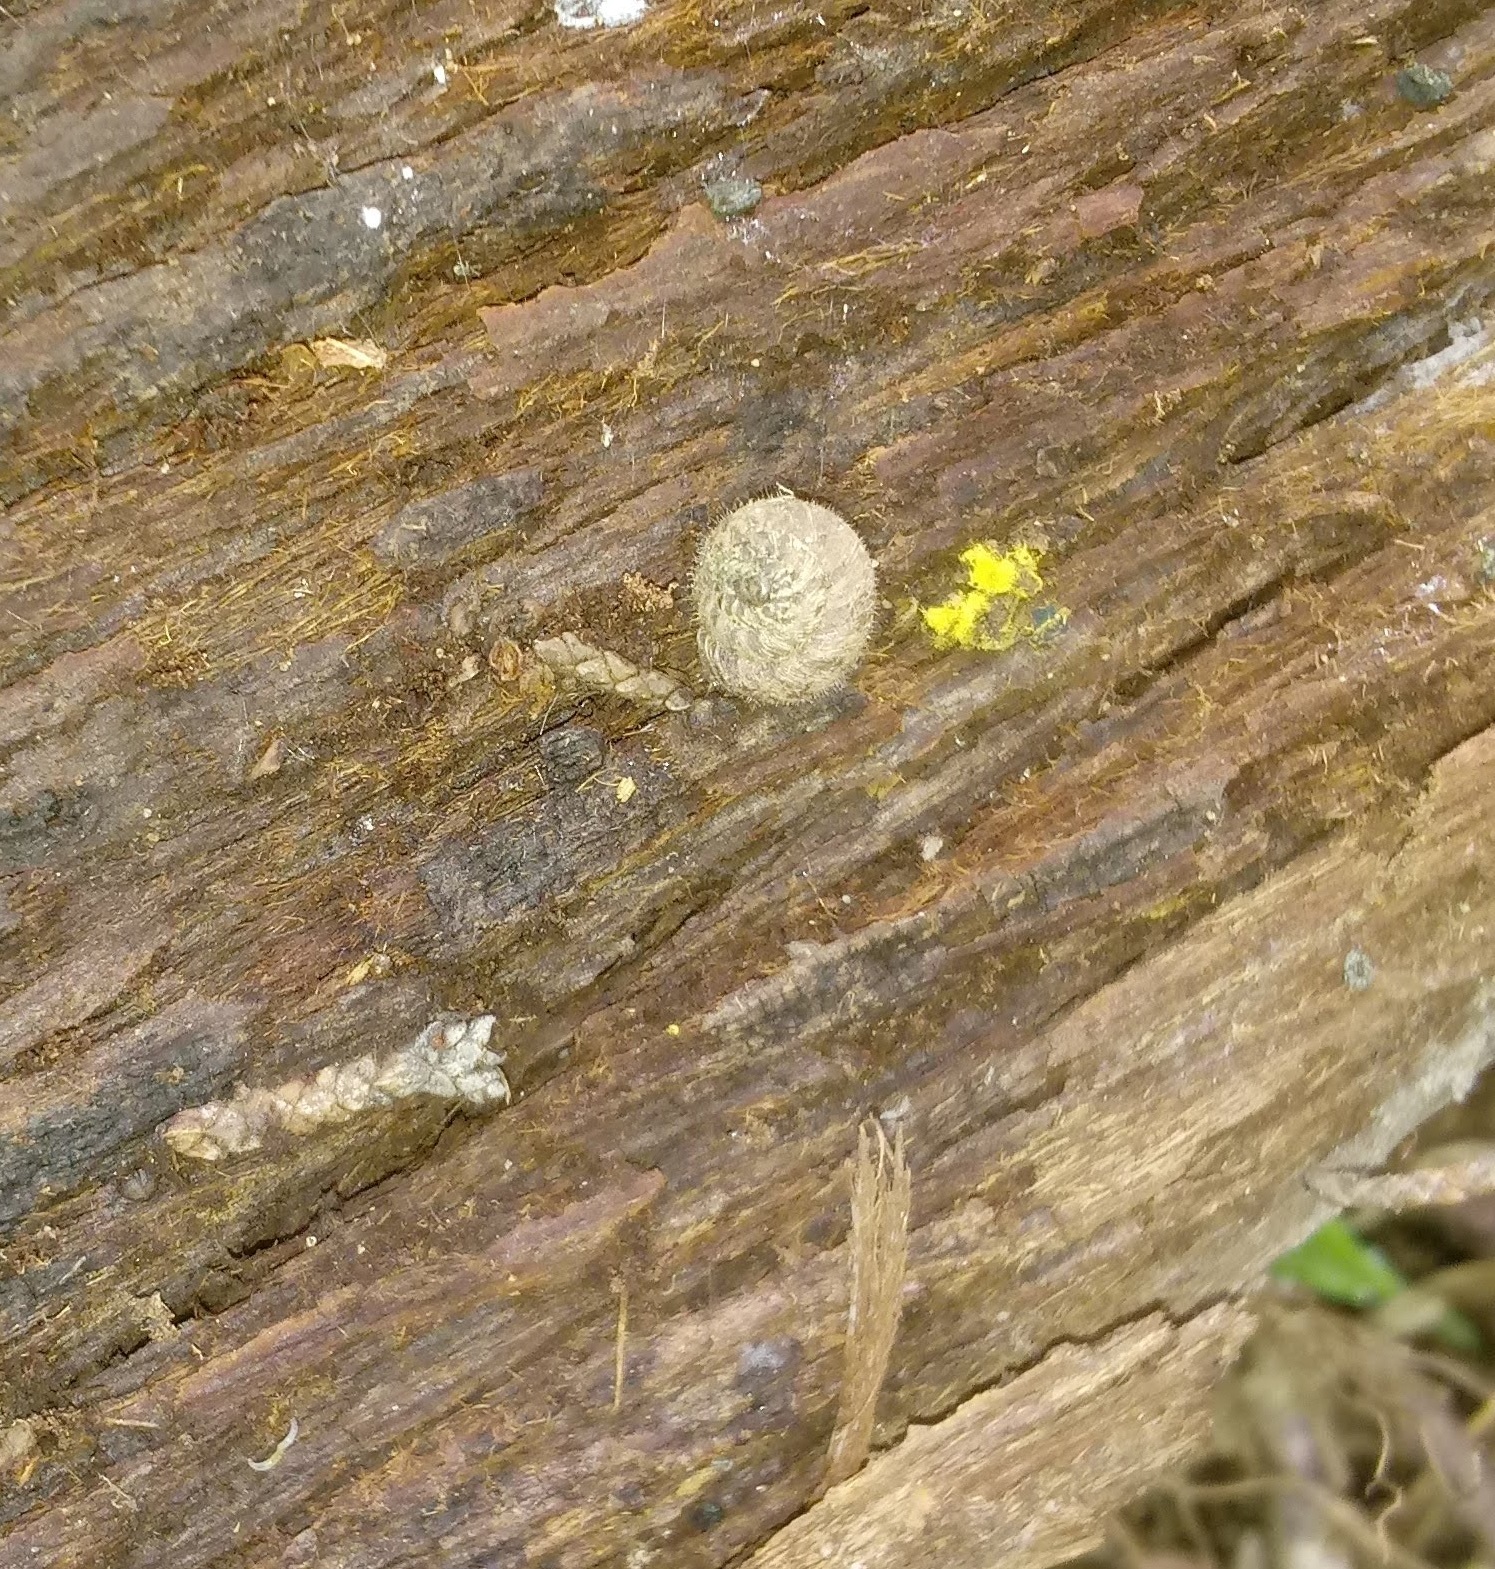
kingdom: Animalia
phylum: Mollusca
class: Gastropoda
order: Stylommatophora
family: Geomitridae
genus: Xerotricha
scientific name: Xerotricha conspurcata
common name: Snail
